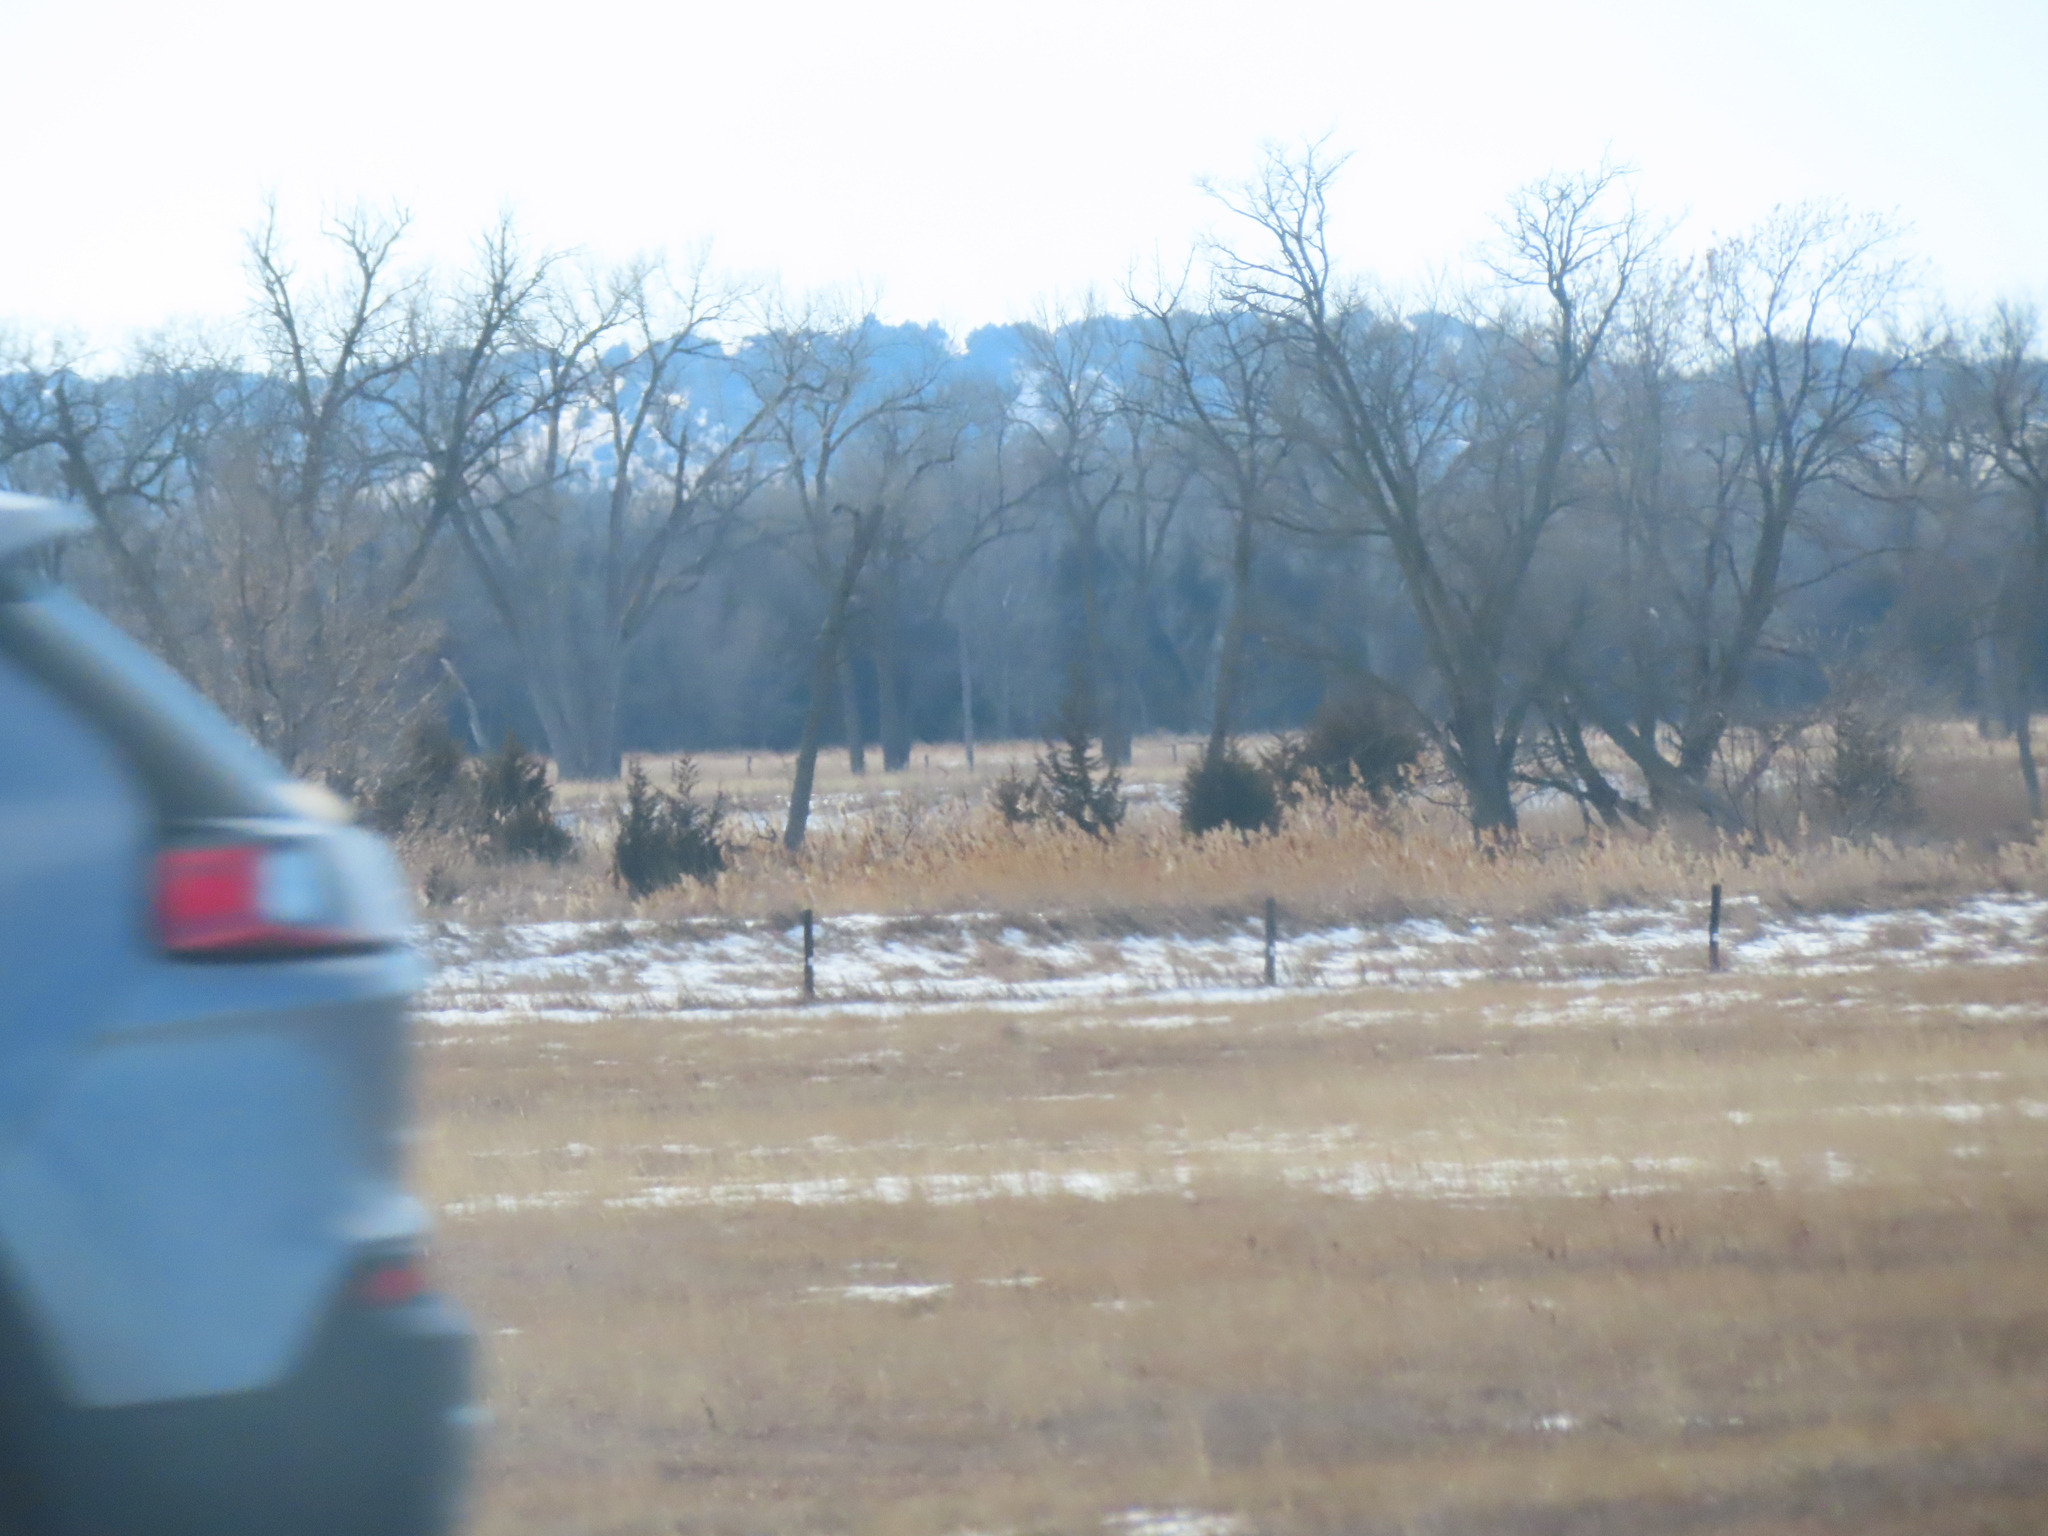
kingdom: Plantae
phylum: Tracheophyta
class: Liliopsida
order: Poales
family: Poaceae
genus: Phragmites
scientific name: Phragmites australis
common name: Common reed
